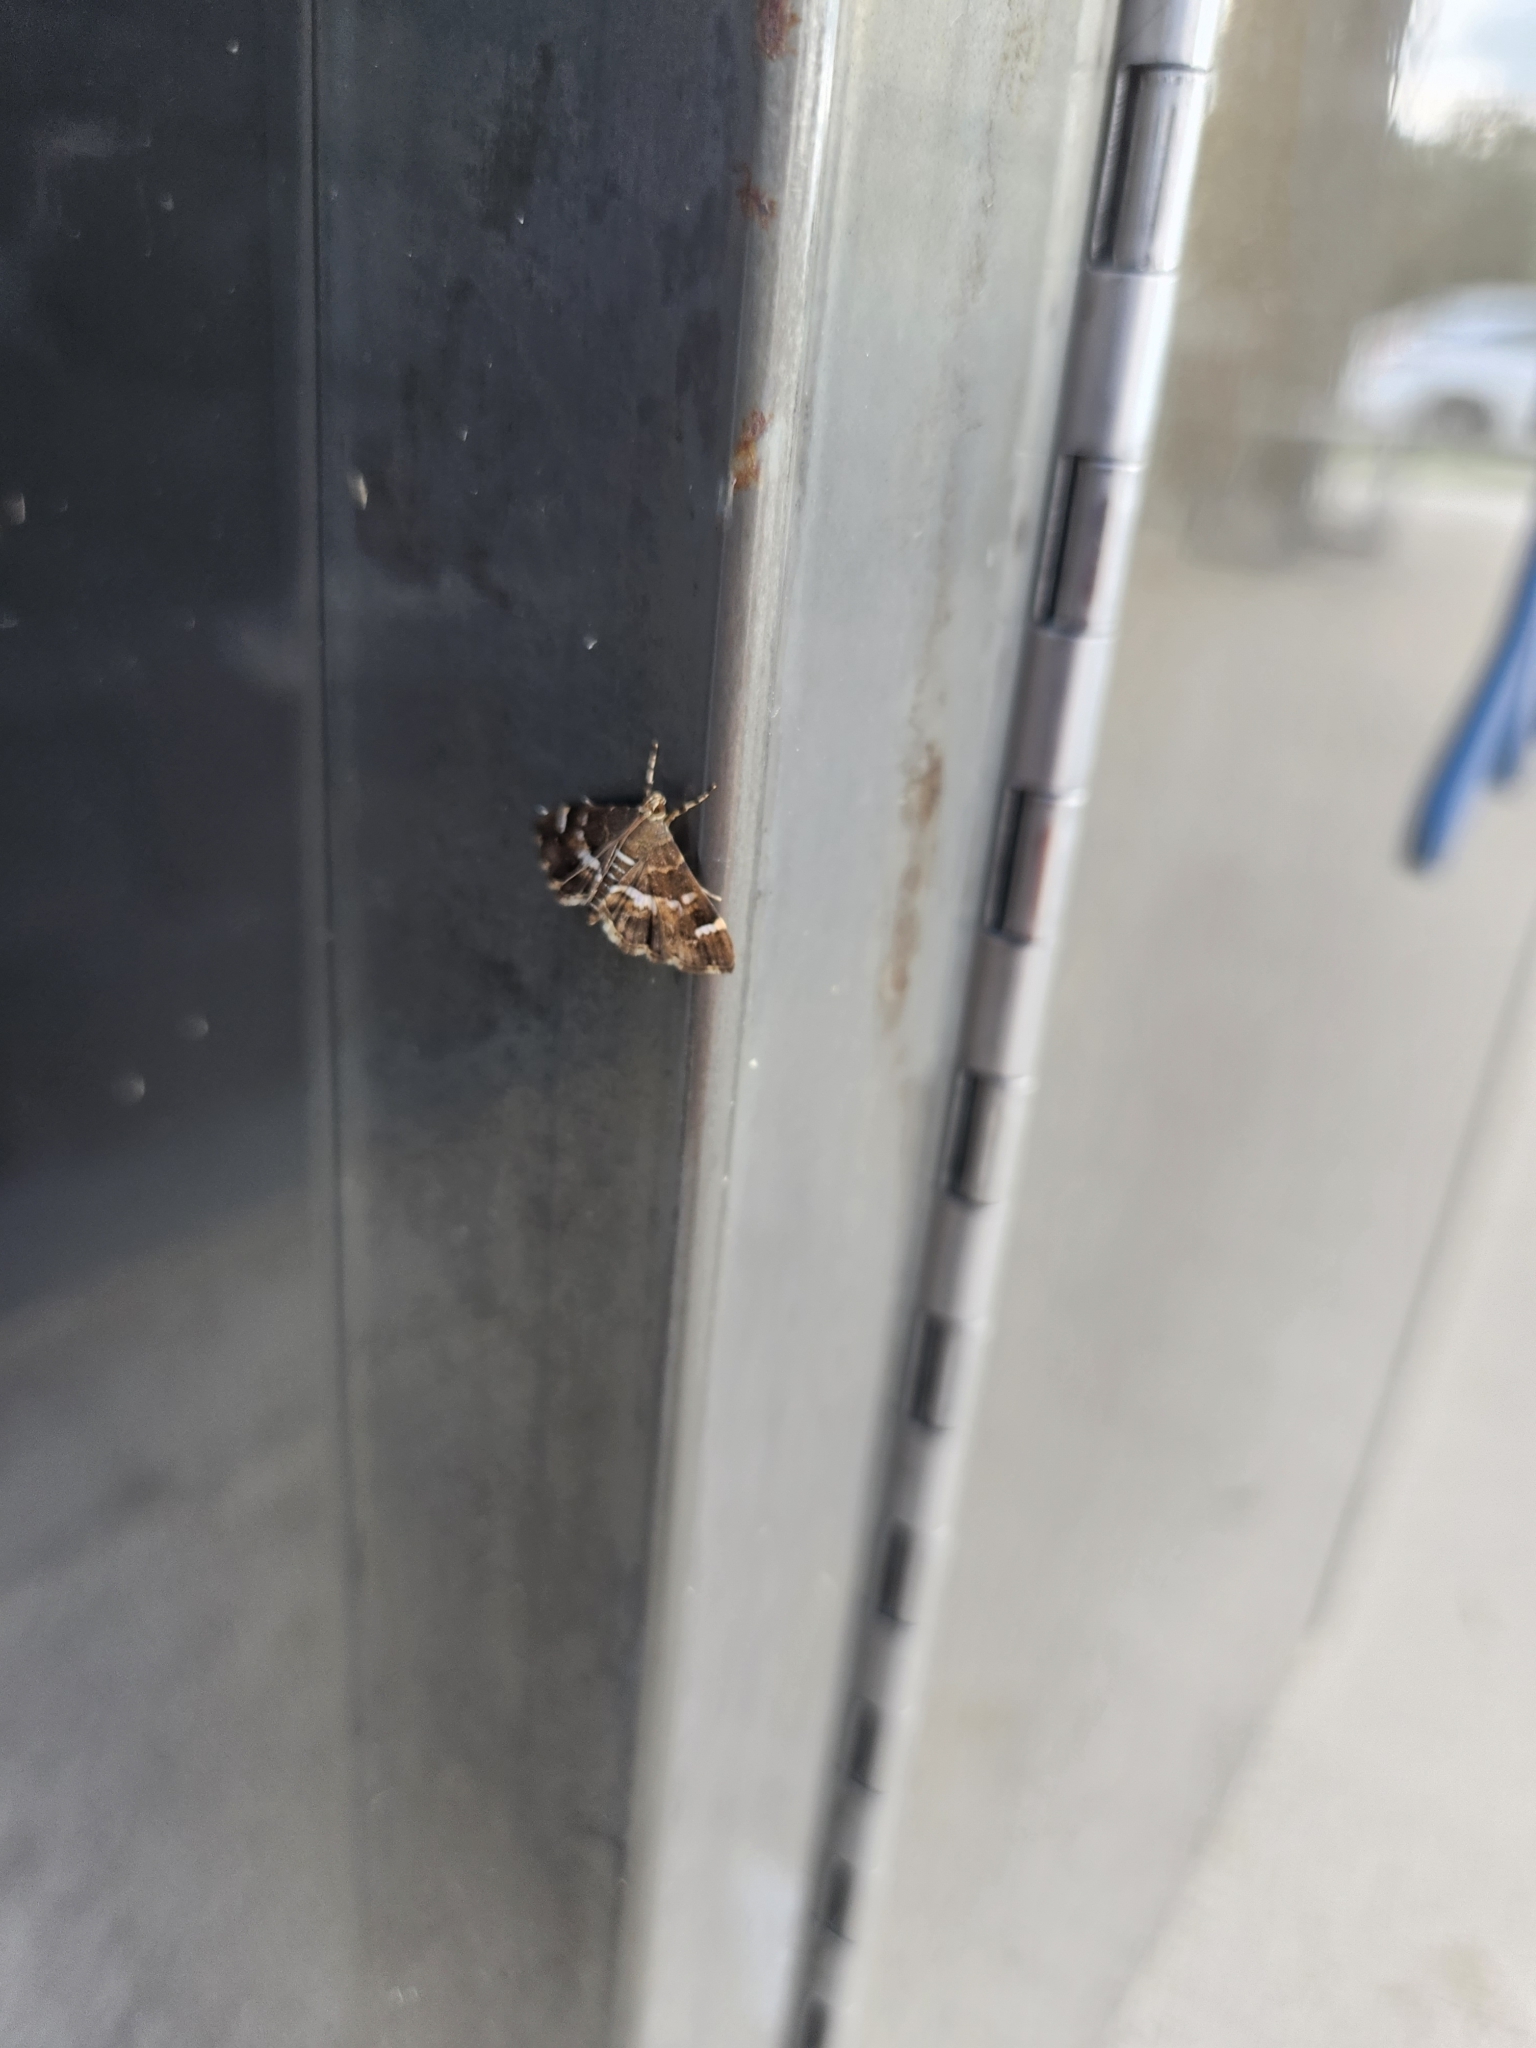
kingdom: Animalia
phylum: Arthropoda
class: Insecta
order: Lepidoptera
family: Crambidae
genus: Hymenia
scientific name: Hymenia perspectalis
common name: Spotted beet webworm
